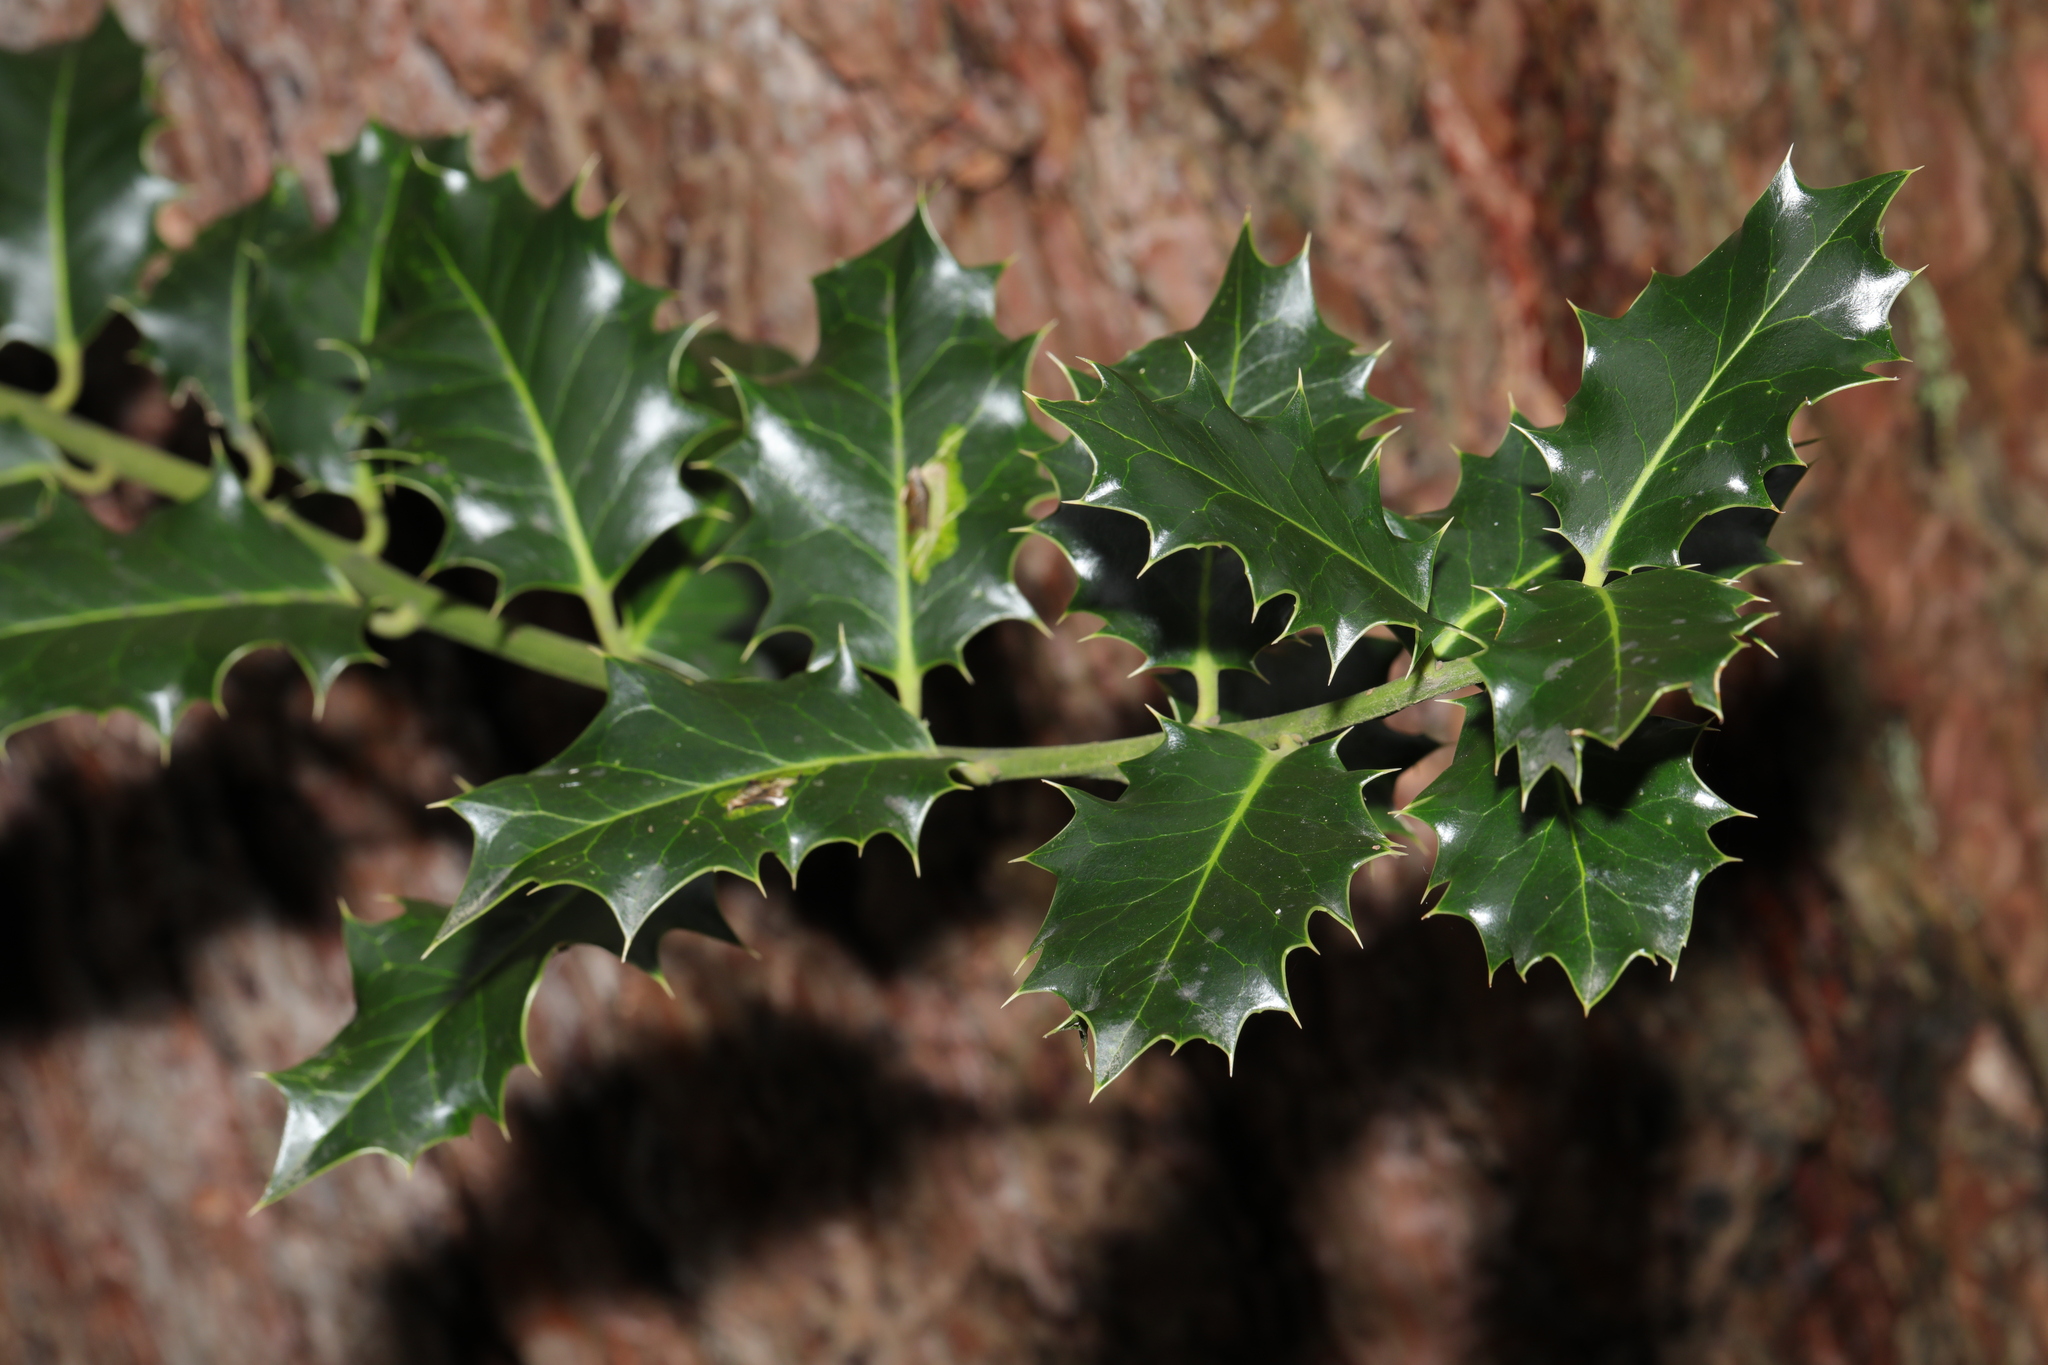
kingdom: Plantae
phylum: Tracheophyta
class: Magnoliopsida
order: Aquifoliales
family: Aquifoliaceae
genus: Ilex
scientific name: Ilex aquifolium
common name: English holly
